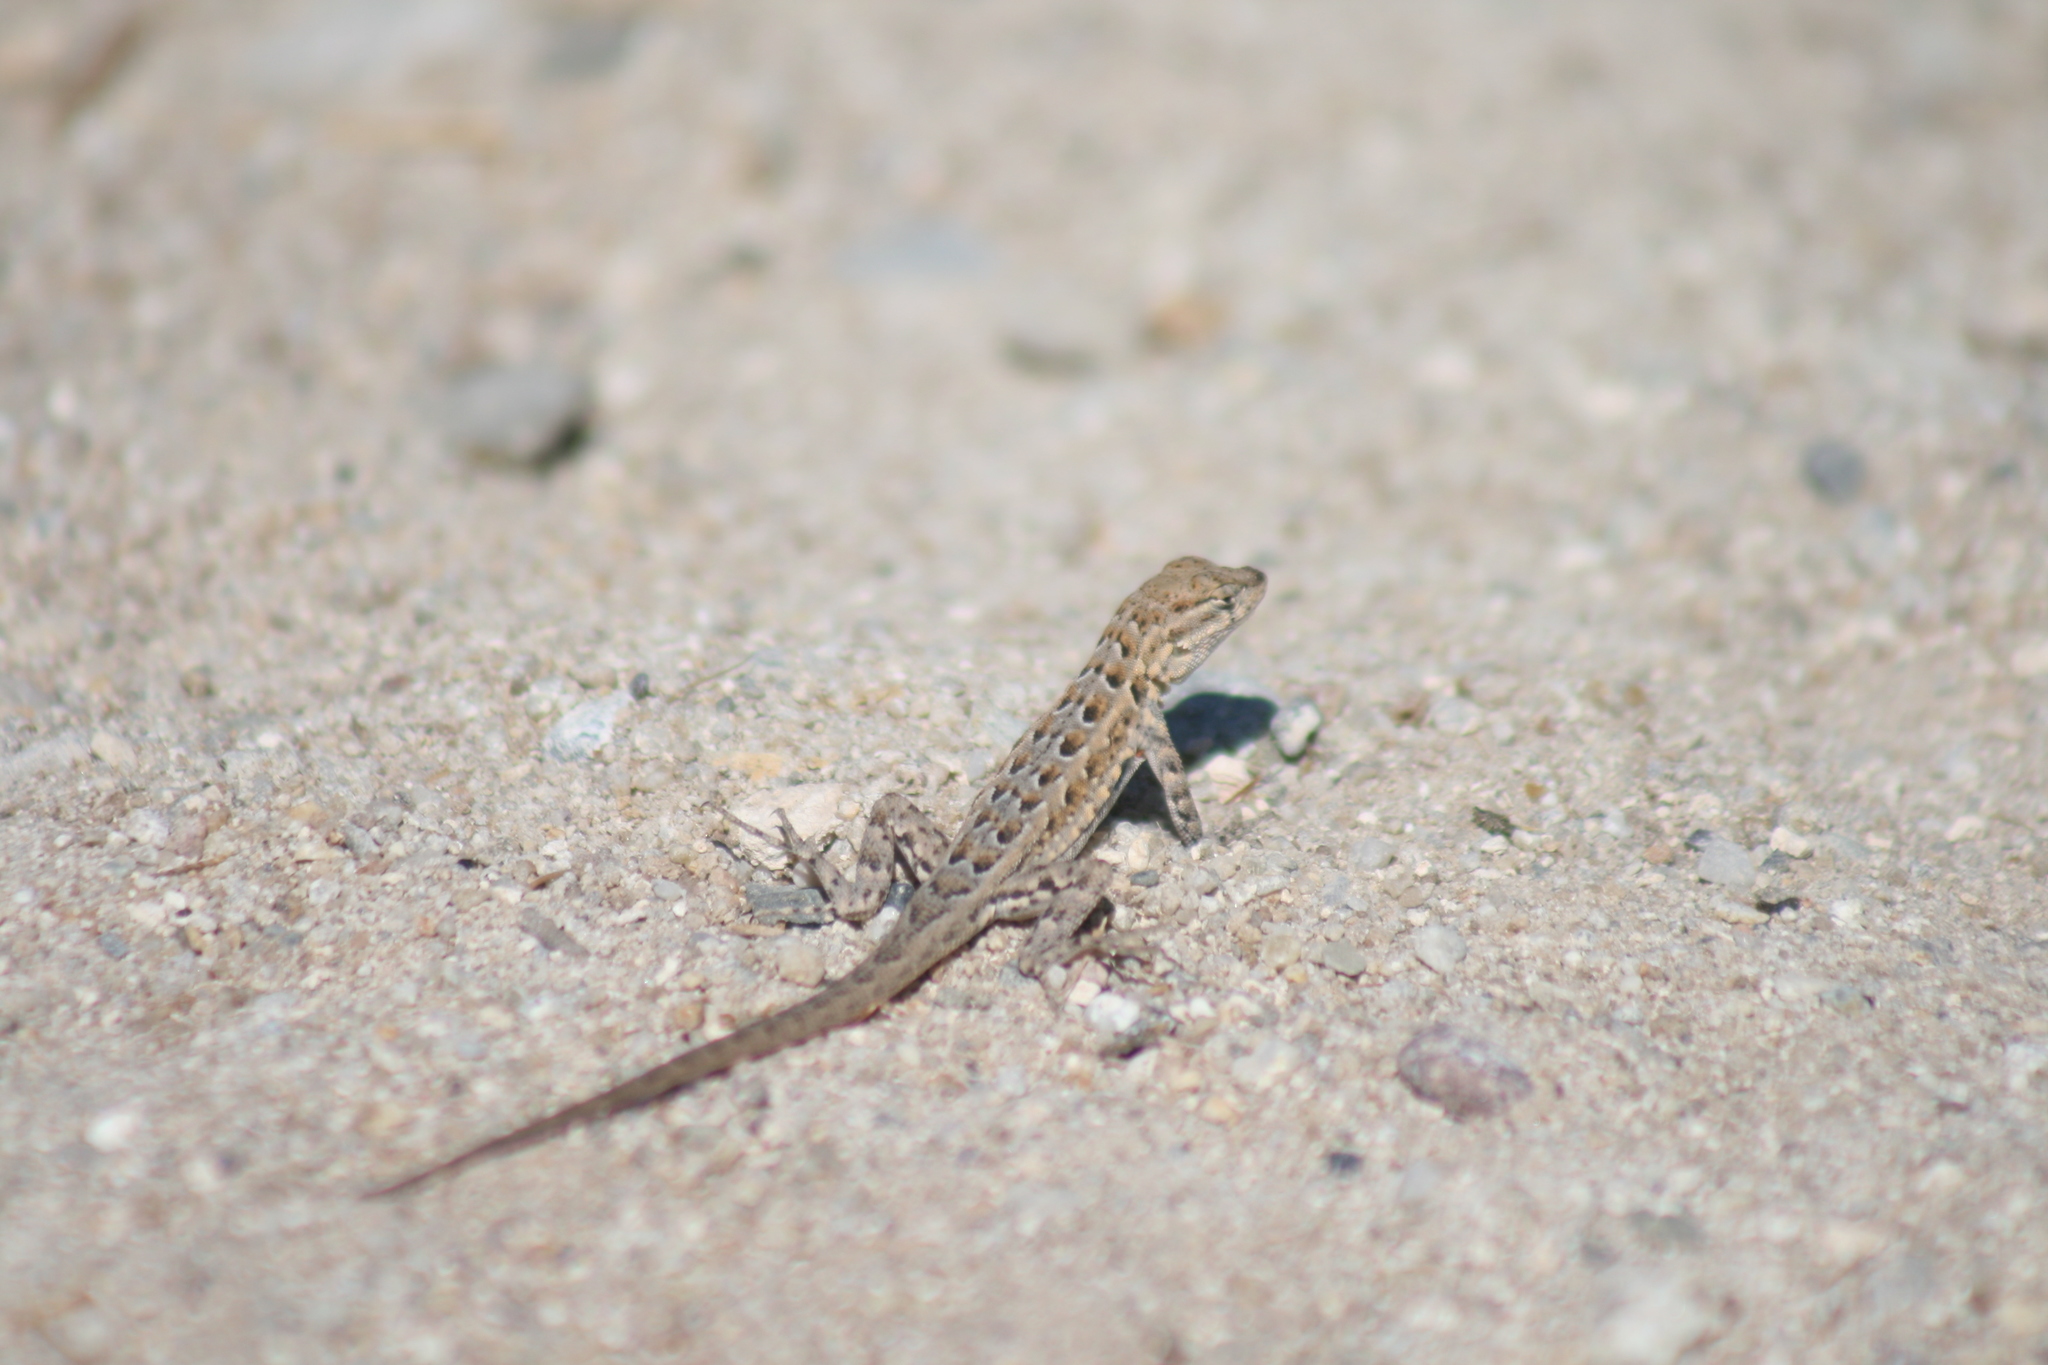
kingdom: Animalia
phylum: Chordata
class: Squamata
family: Phrynosomatidae
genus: Uta
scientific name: Uta stansburiana
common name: Side-blotched lizard
